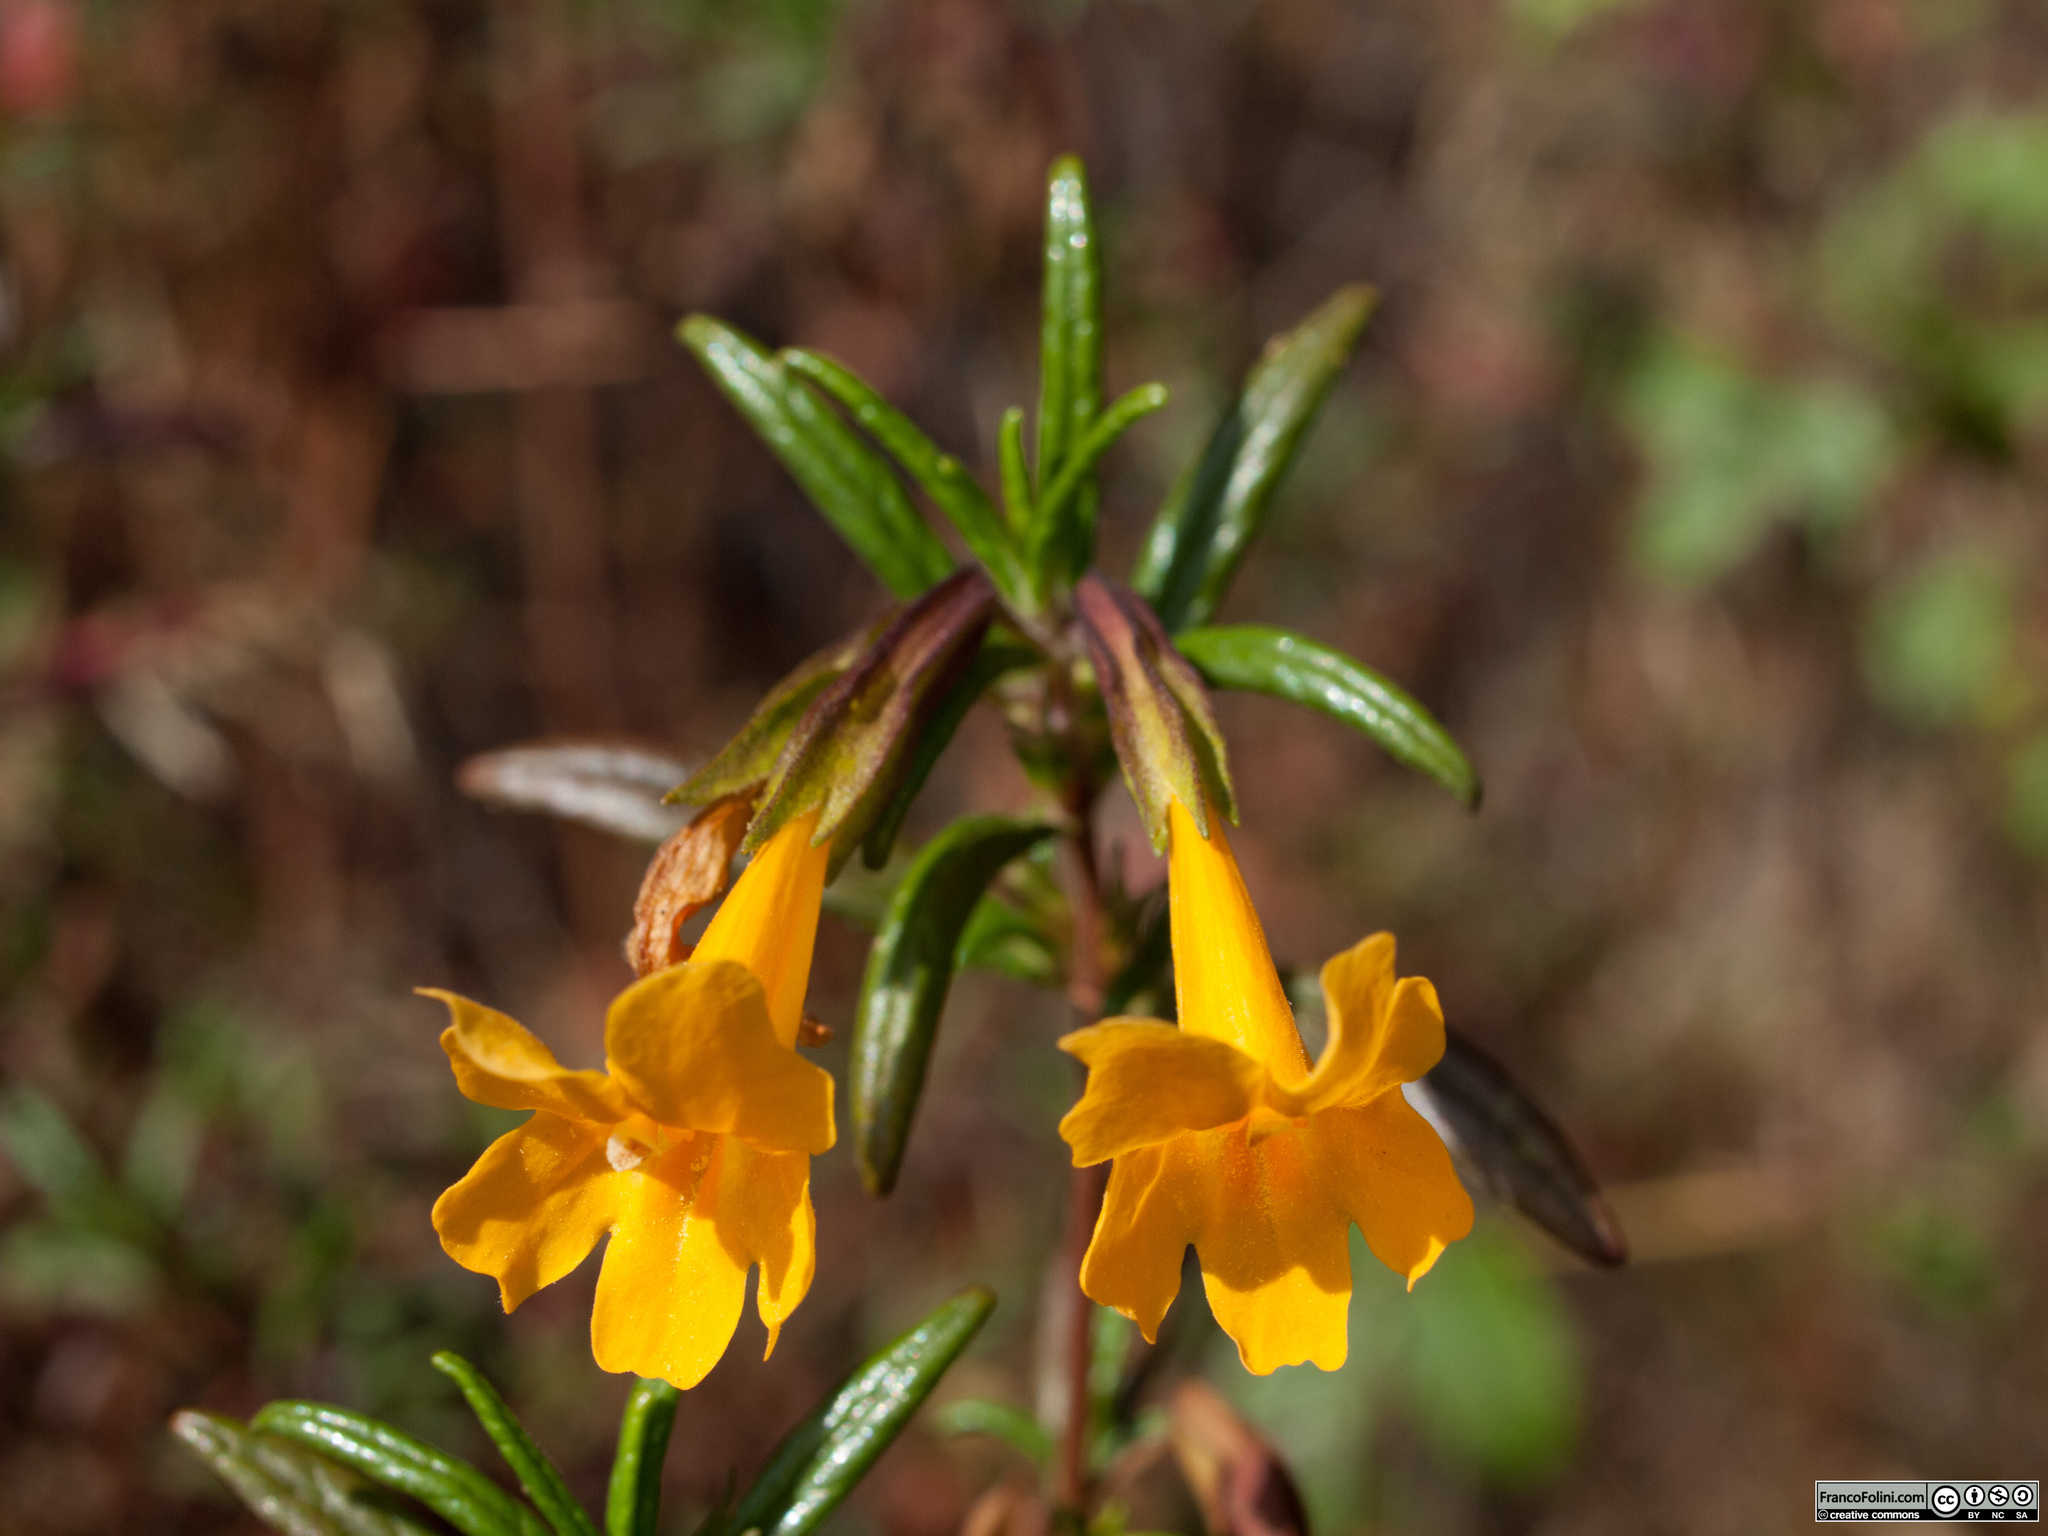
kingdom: Plantae
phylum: Tracheophyta
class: Magnoliopsida
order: Lamiales
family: Phrymaceae
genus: Diplacus
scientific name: Diplacus aurantiacus
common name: Bush monkey-flower
